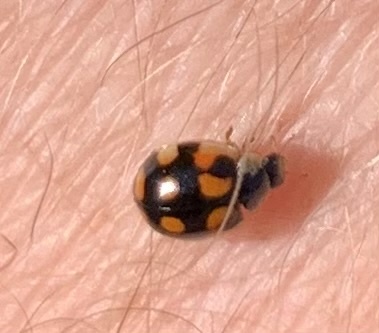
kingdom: Animalia
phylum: Arthropoda
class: Insecta
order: Coleoptera
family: Coccinellidae
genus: Adalia
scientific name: Adalia decempunctata
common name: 10-spot ladybird
